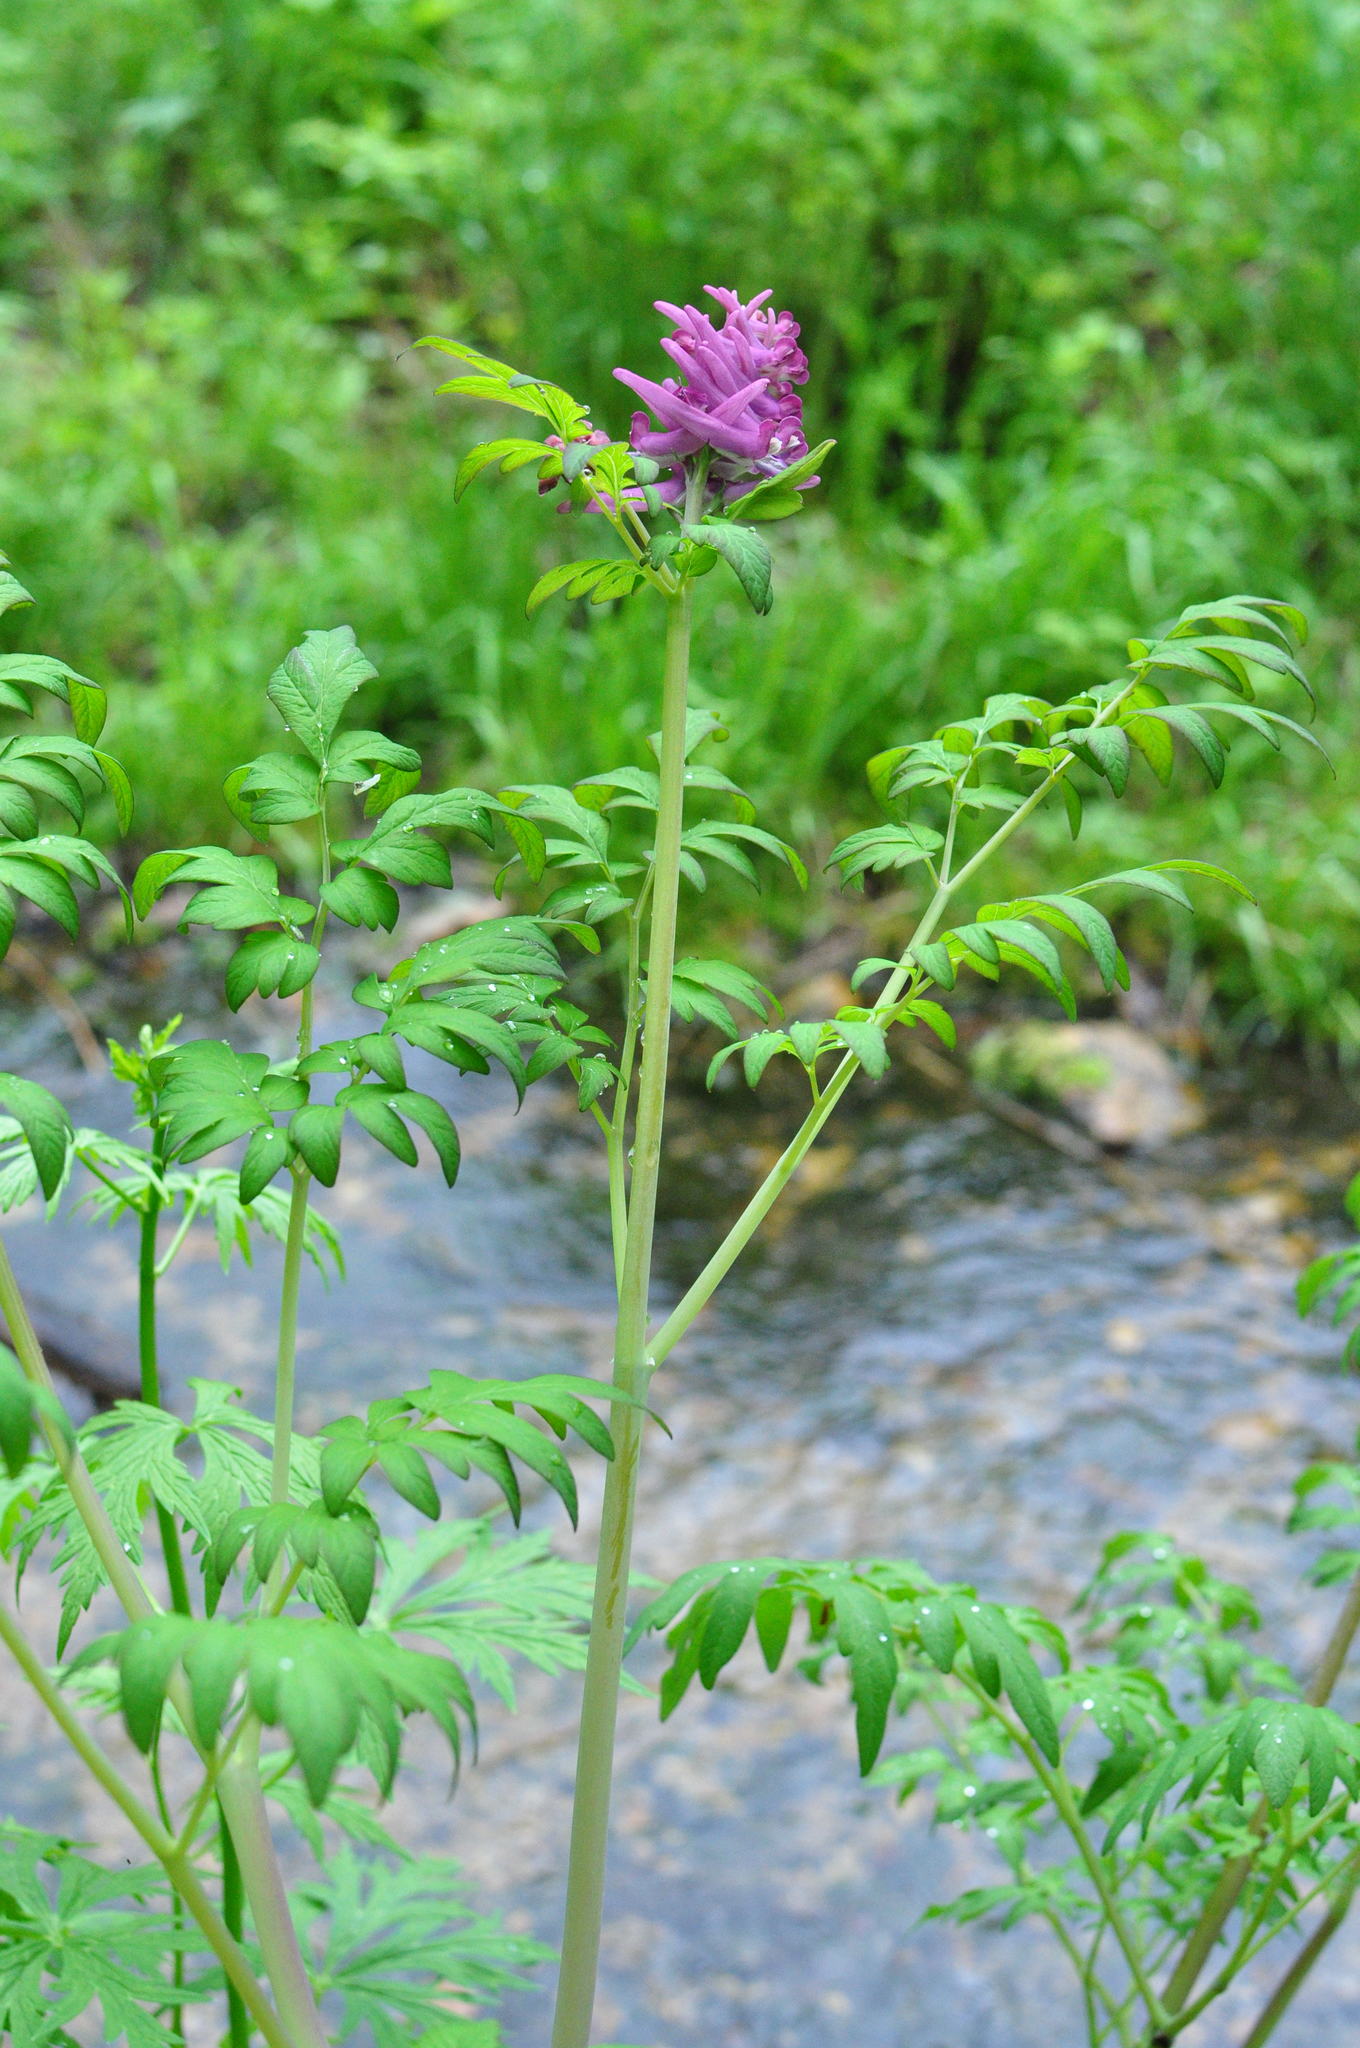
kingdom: Plantae
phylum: Tracheophyta
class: Magnoliopsida
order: Ranunculales
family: Papaveraceae
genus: Corydalis
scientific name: Corydalis gigantea
